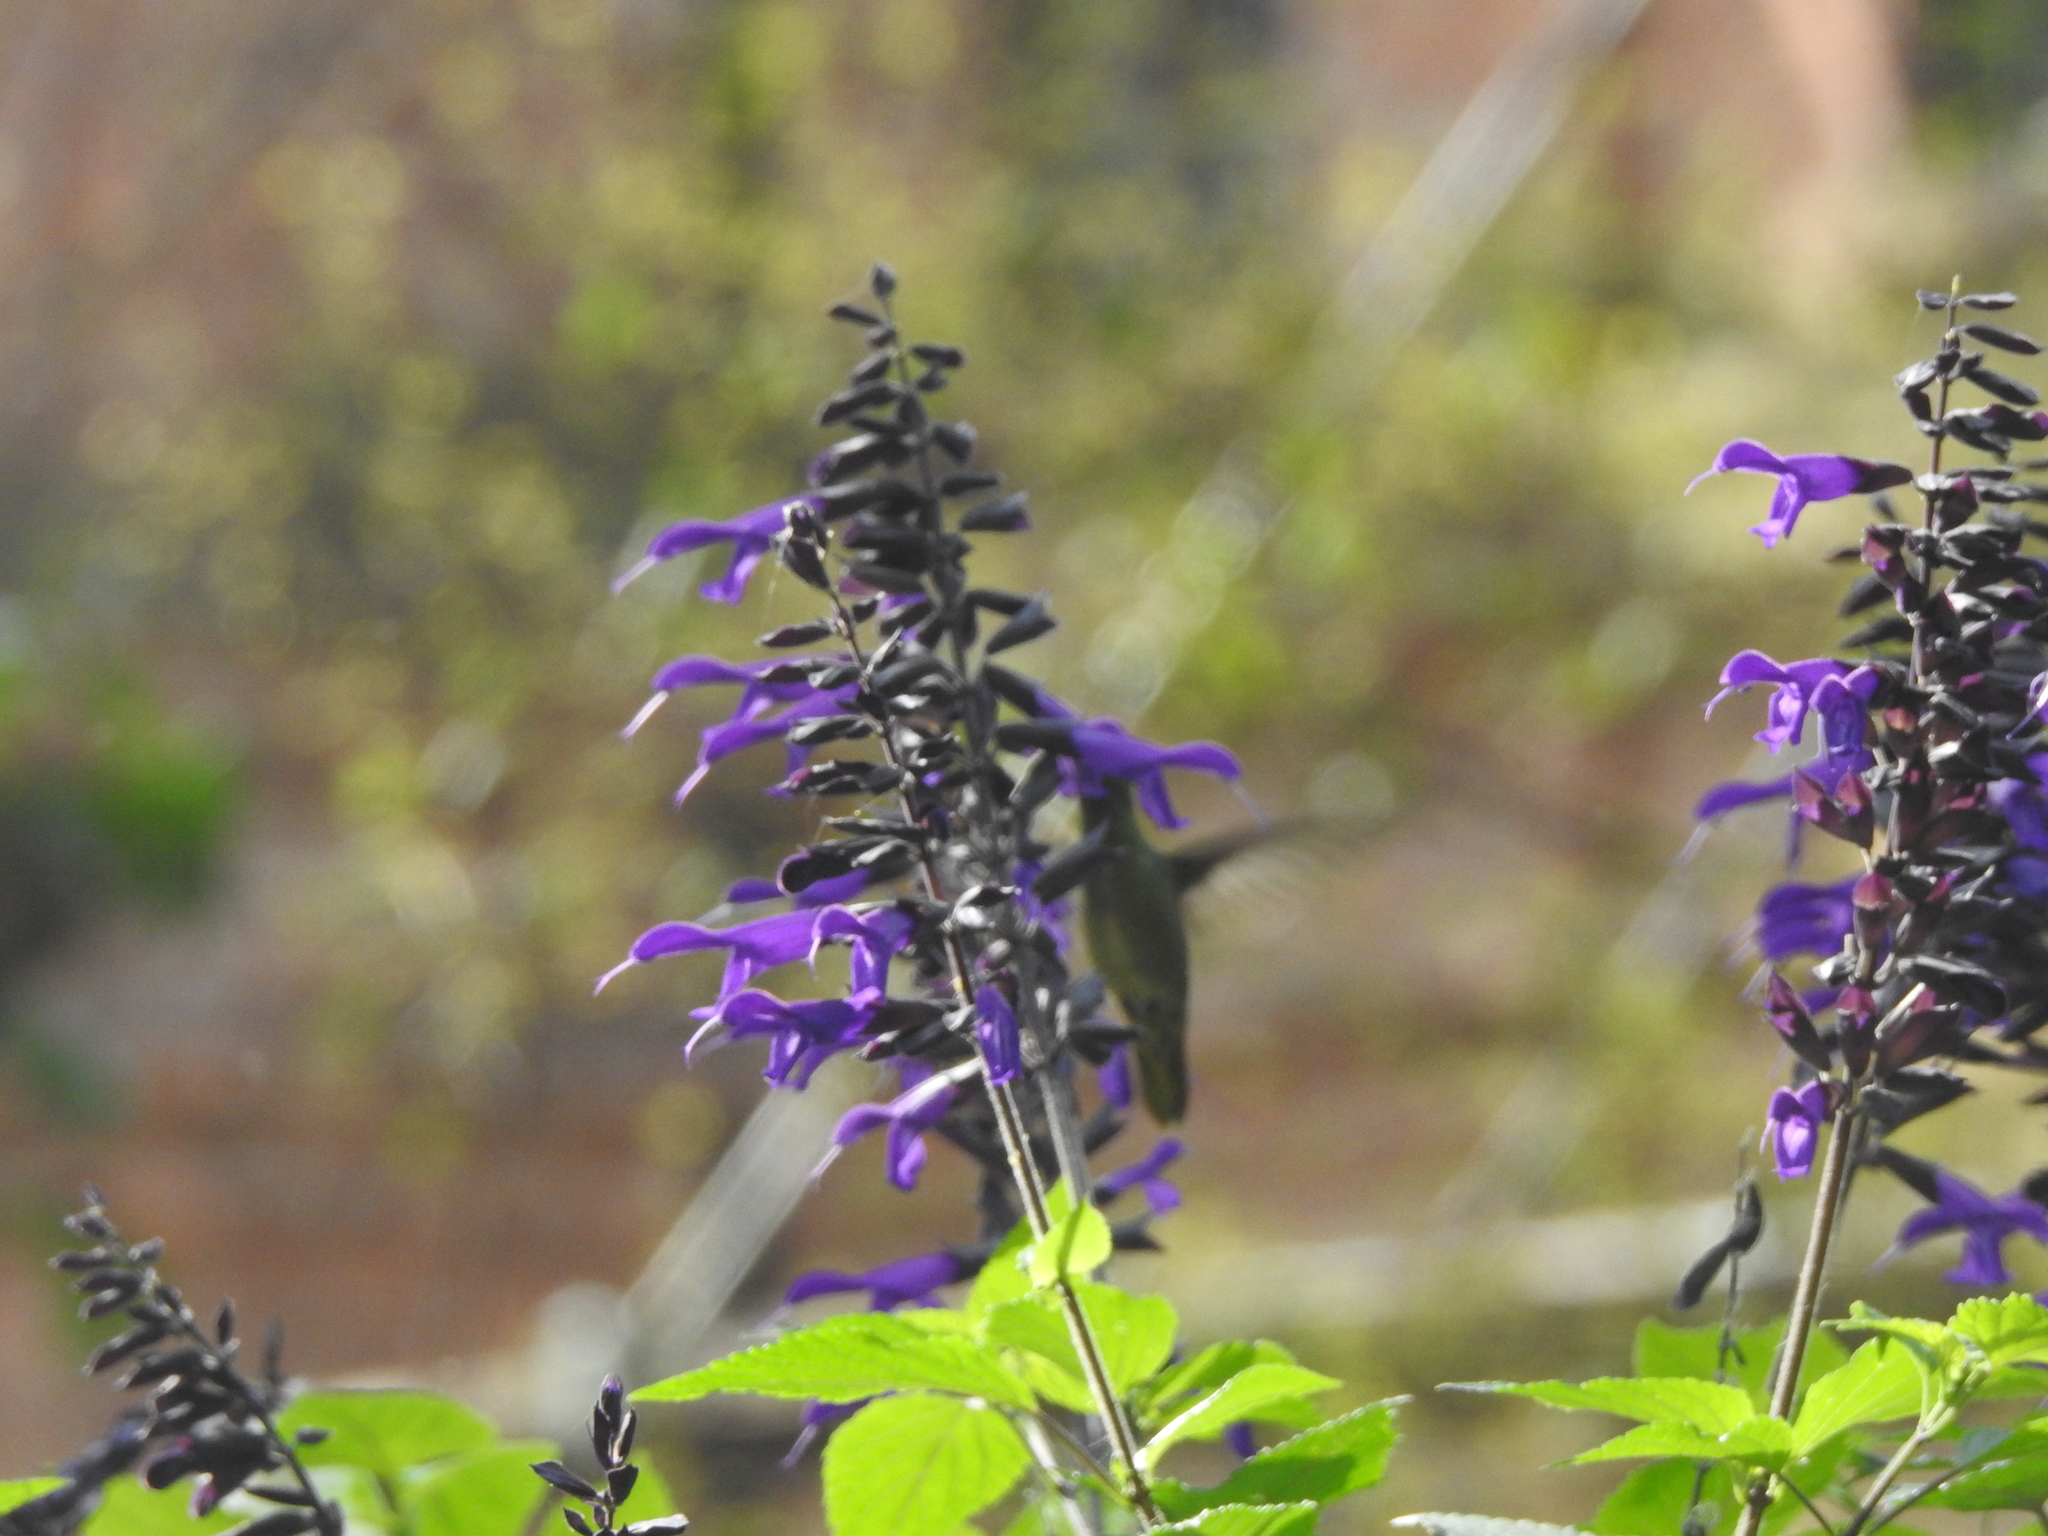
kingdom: Animalia
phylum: Chordata
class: Aves
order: Apodiformes
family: Trochilidae
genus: Hylocharis
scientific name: Hylocharis chrysura
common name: Gilded sapphire
